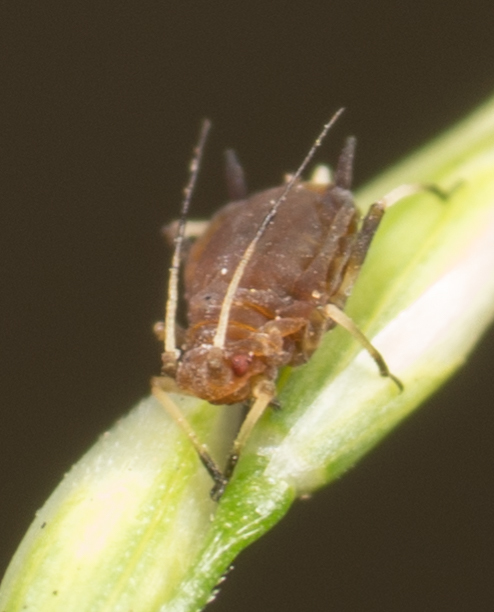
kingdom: Animalia
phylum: Arthropoda
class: Insecta
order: Hemiptera
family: Aphididae
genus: Hysteroneura
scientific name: Hysteroneura setariae
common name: Rusty plum aphid
